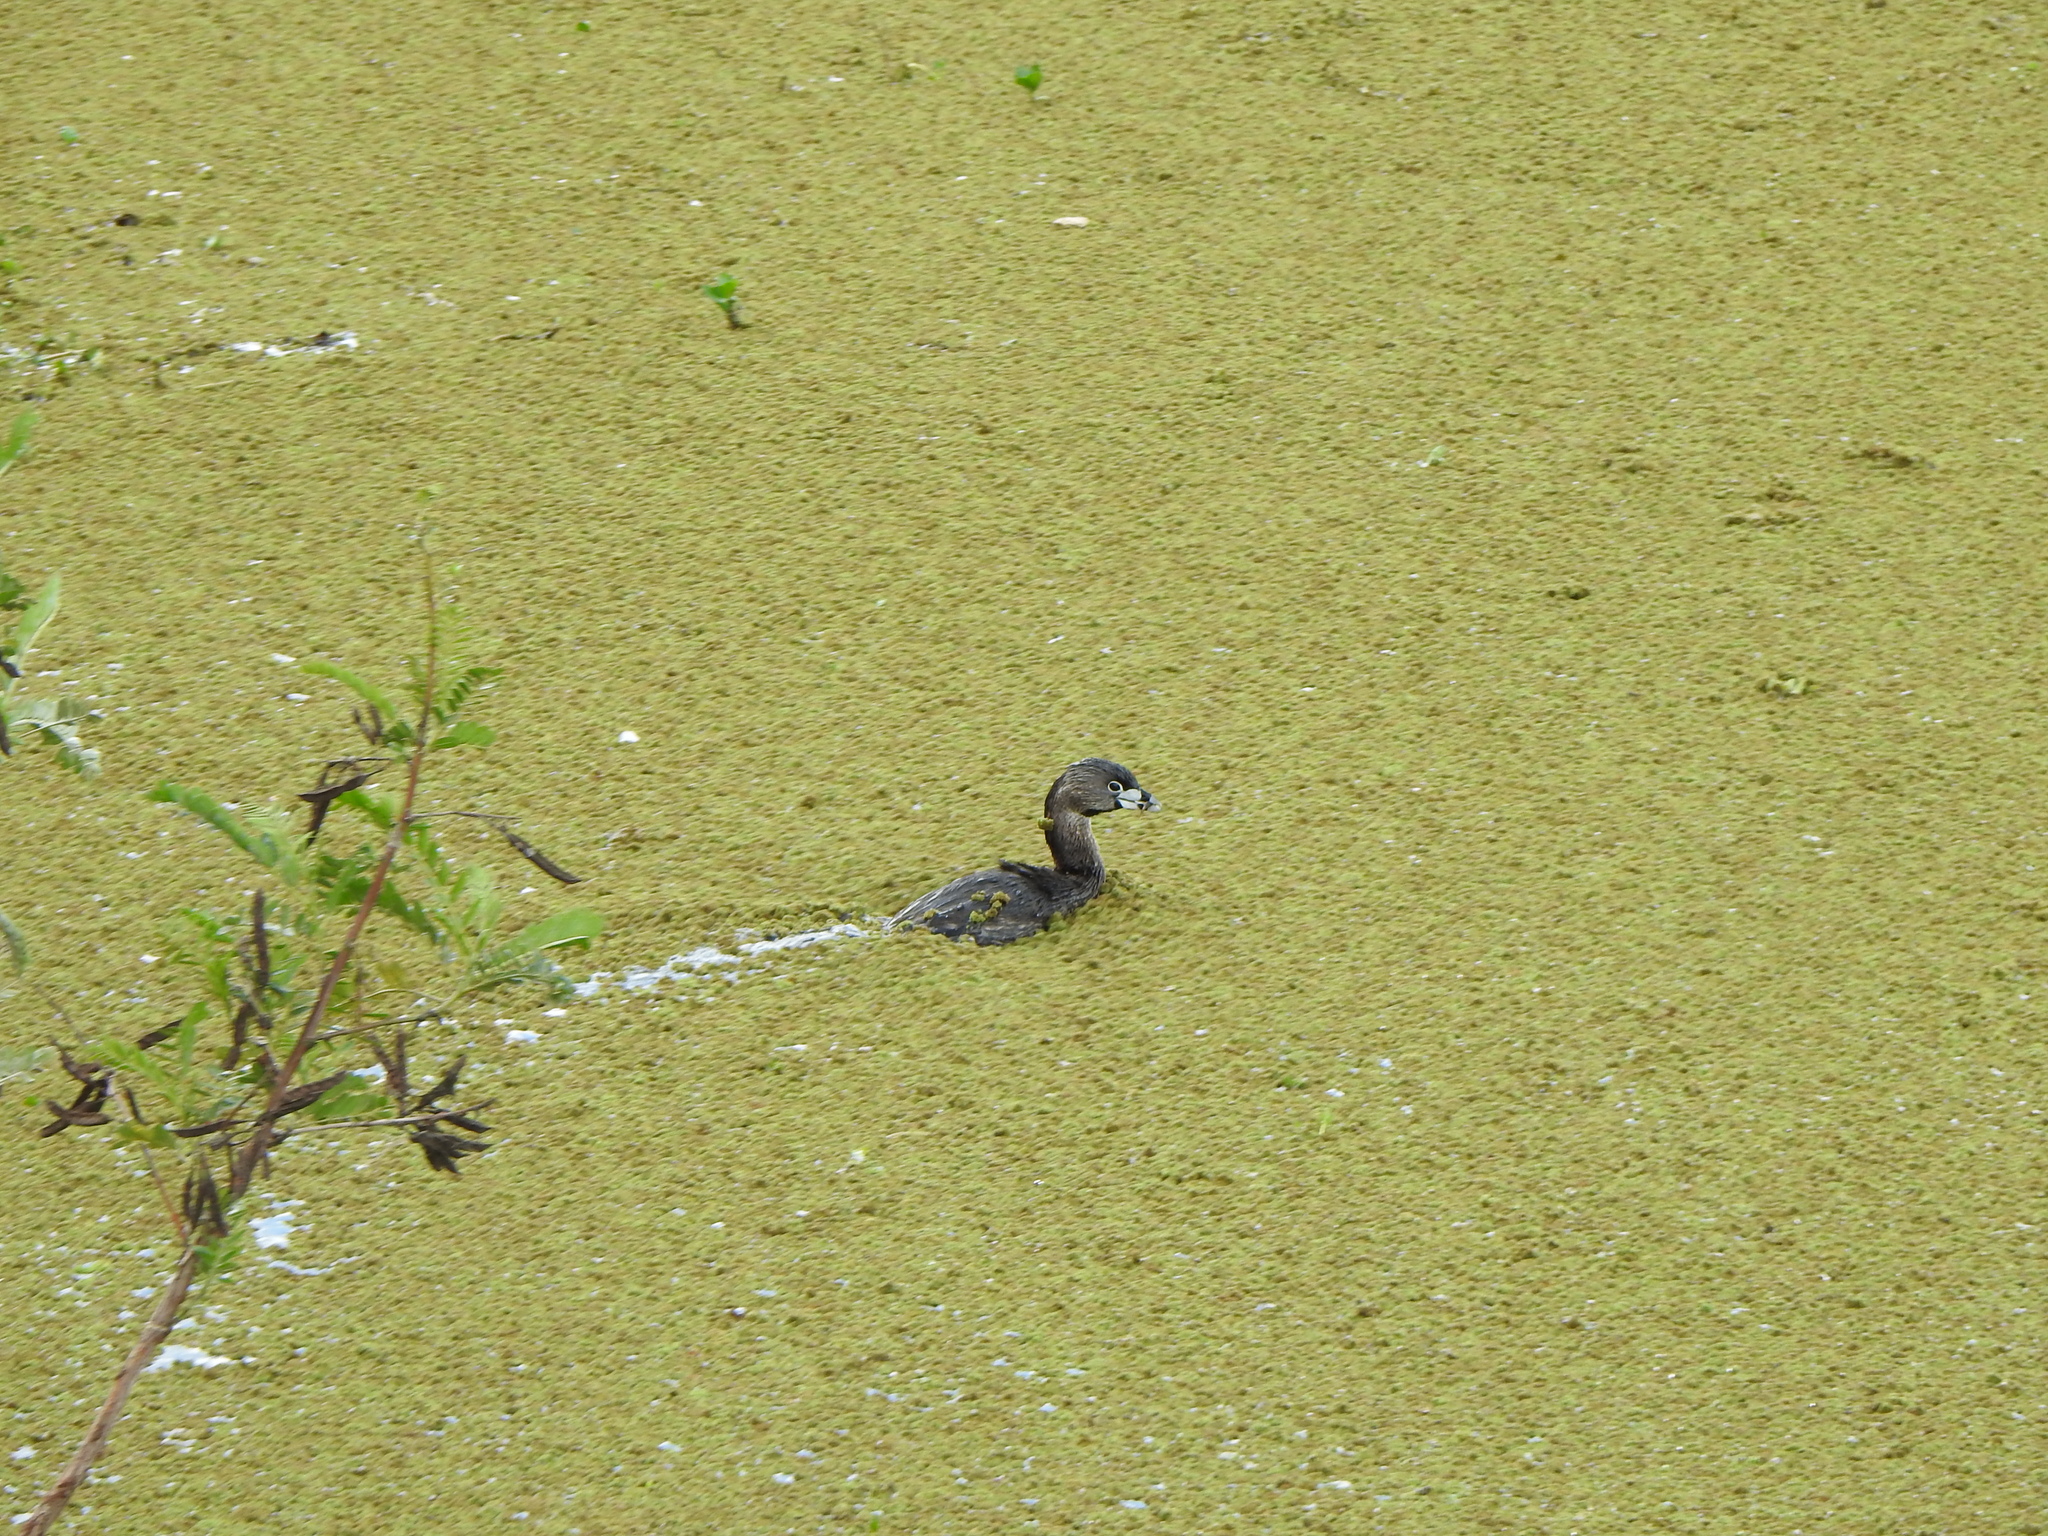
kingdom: Animalia
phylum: Chordata
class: Aves
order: Podicipediformes
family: Podicipedidae
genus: Podilymbus
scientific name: Podilymbus podiceps
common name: Pied-billed grebe
